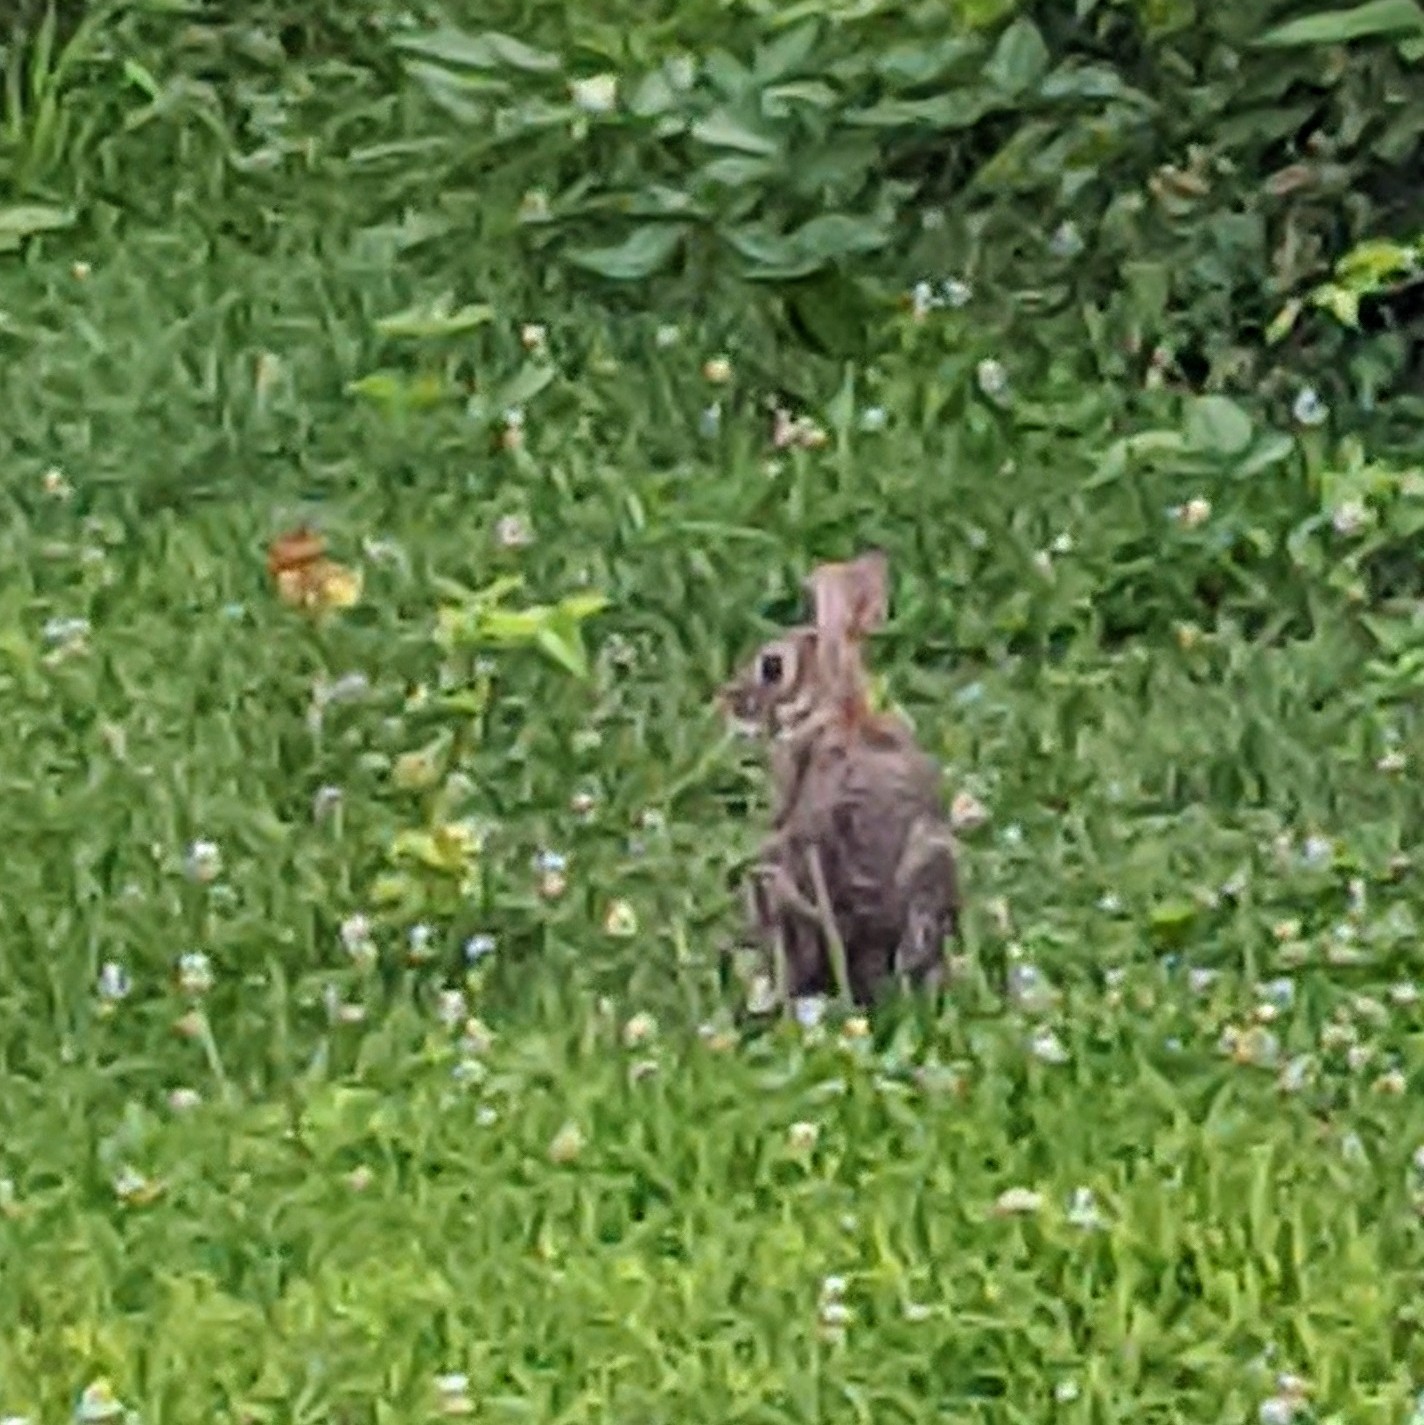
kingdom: Animalia
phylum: Chordata
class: Mammalia
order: Lagomorpha
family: Leporidae
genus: Sylvilagus
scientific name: Sylvilagus floridanus
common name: Eastern cottontail
